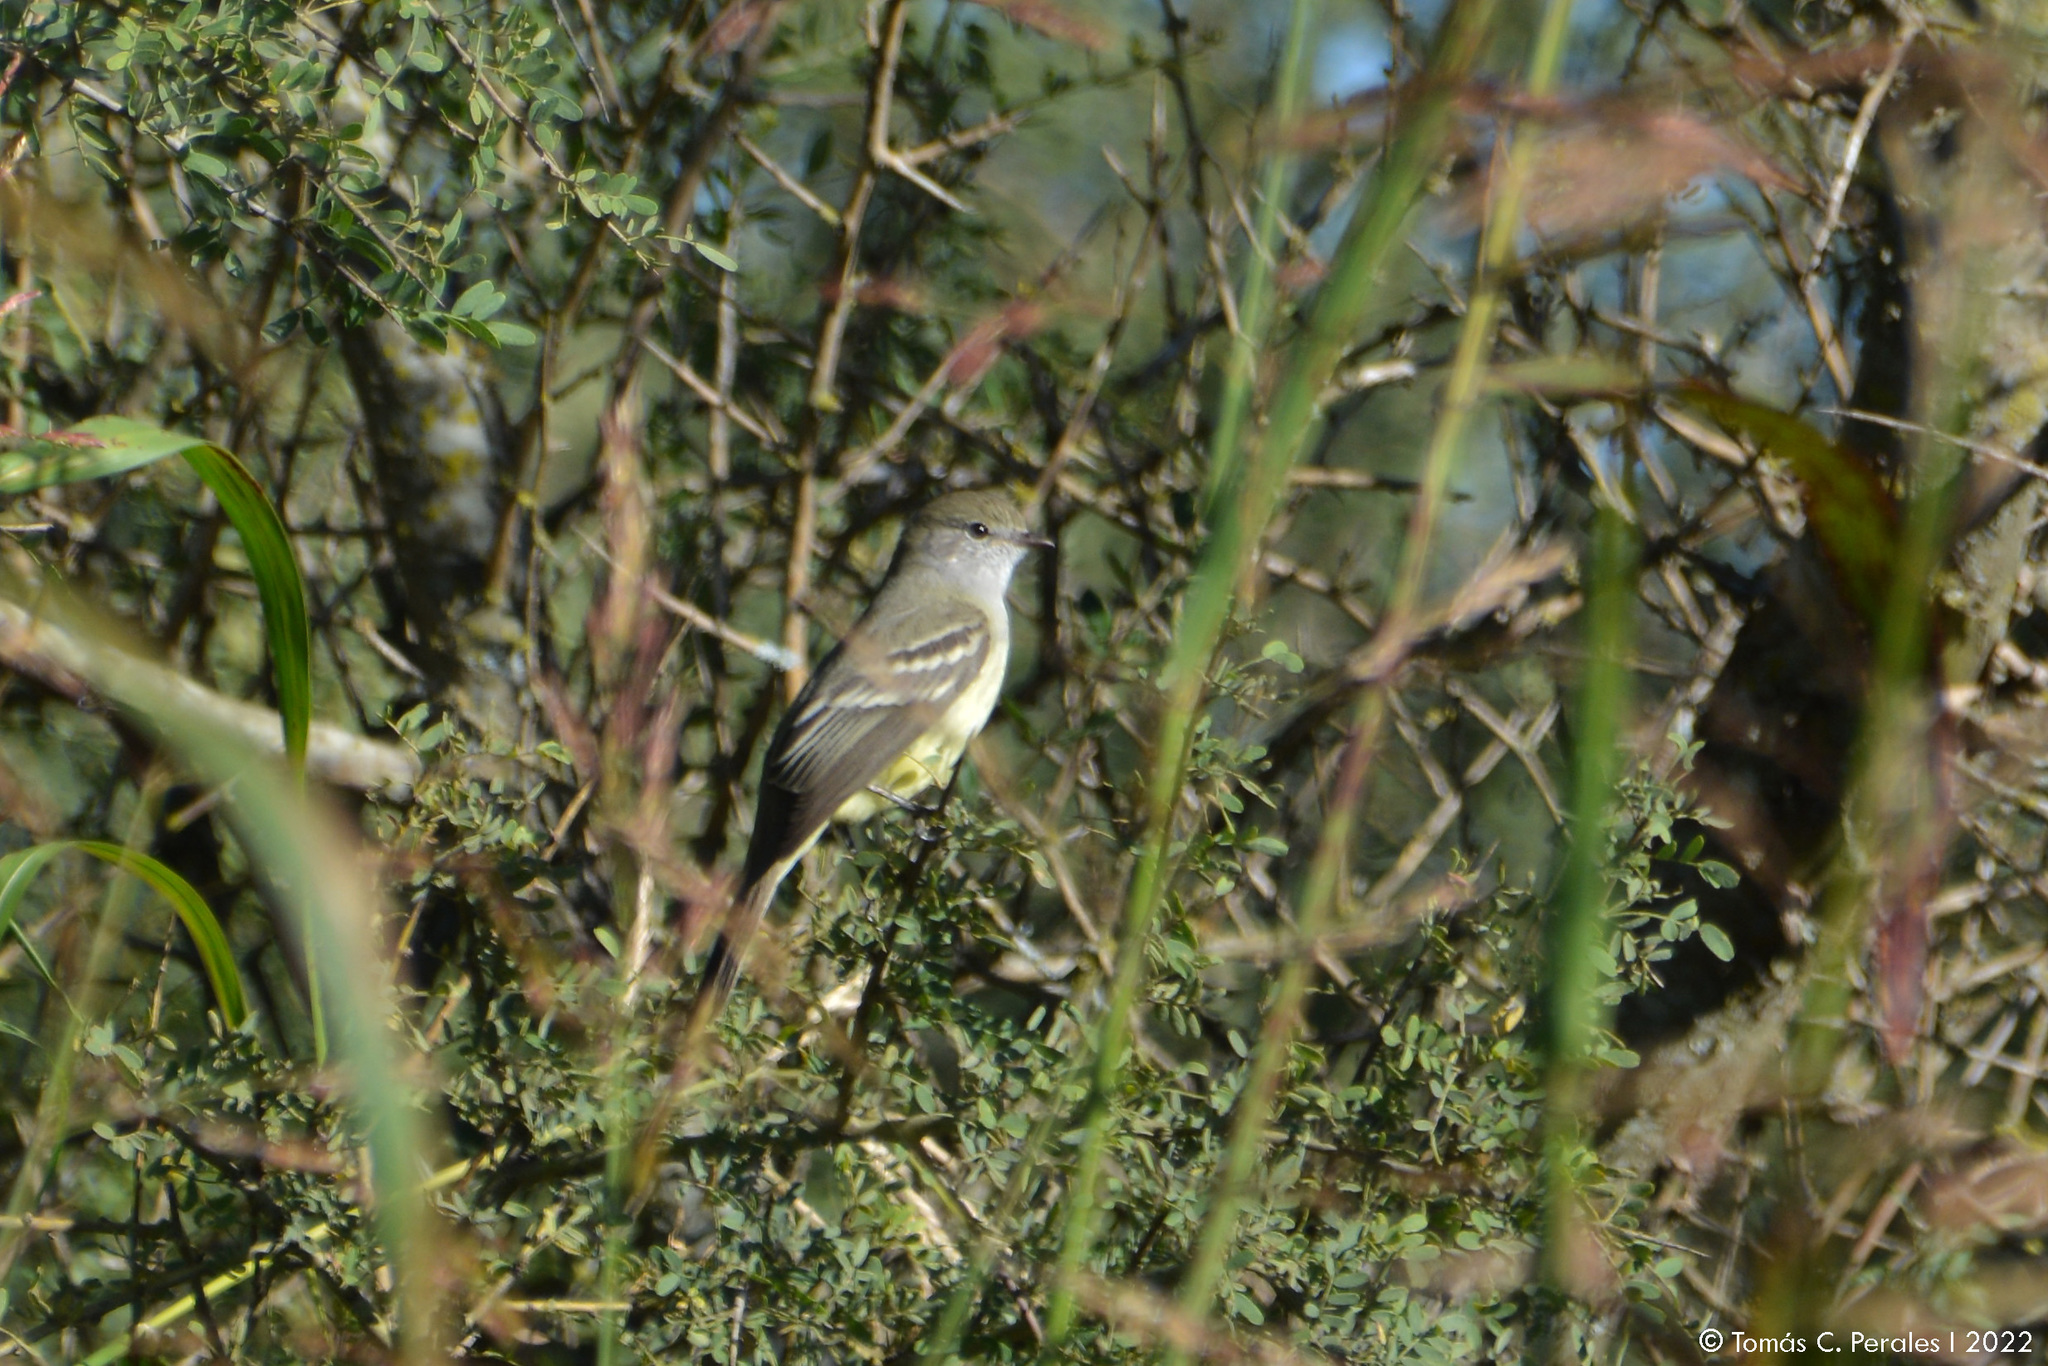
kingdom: Animalia
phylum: Chordata
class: Aves
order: Passeriformes
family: Tyrannidae
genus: Sublegatus
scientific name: Sublegatus modestus
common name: Southern scrub flycatcher
